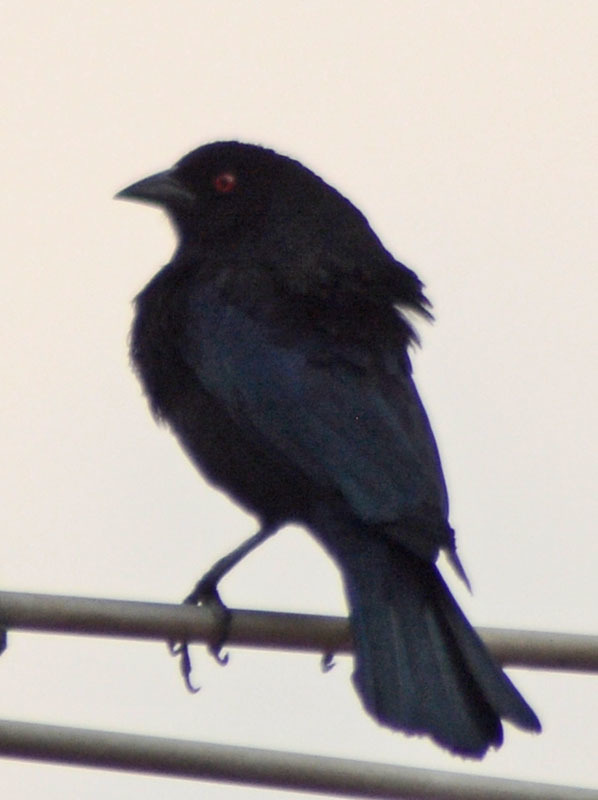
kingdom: Animalia
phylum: Chordata
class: Aves
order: Passeriformes
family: Icteridae
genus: Molothrus
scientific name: Molothrus aeneus
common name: Bronzed cowbird
